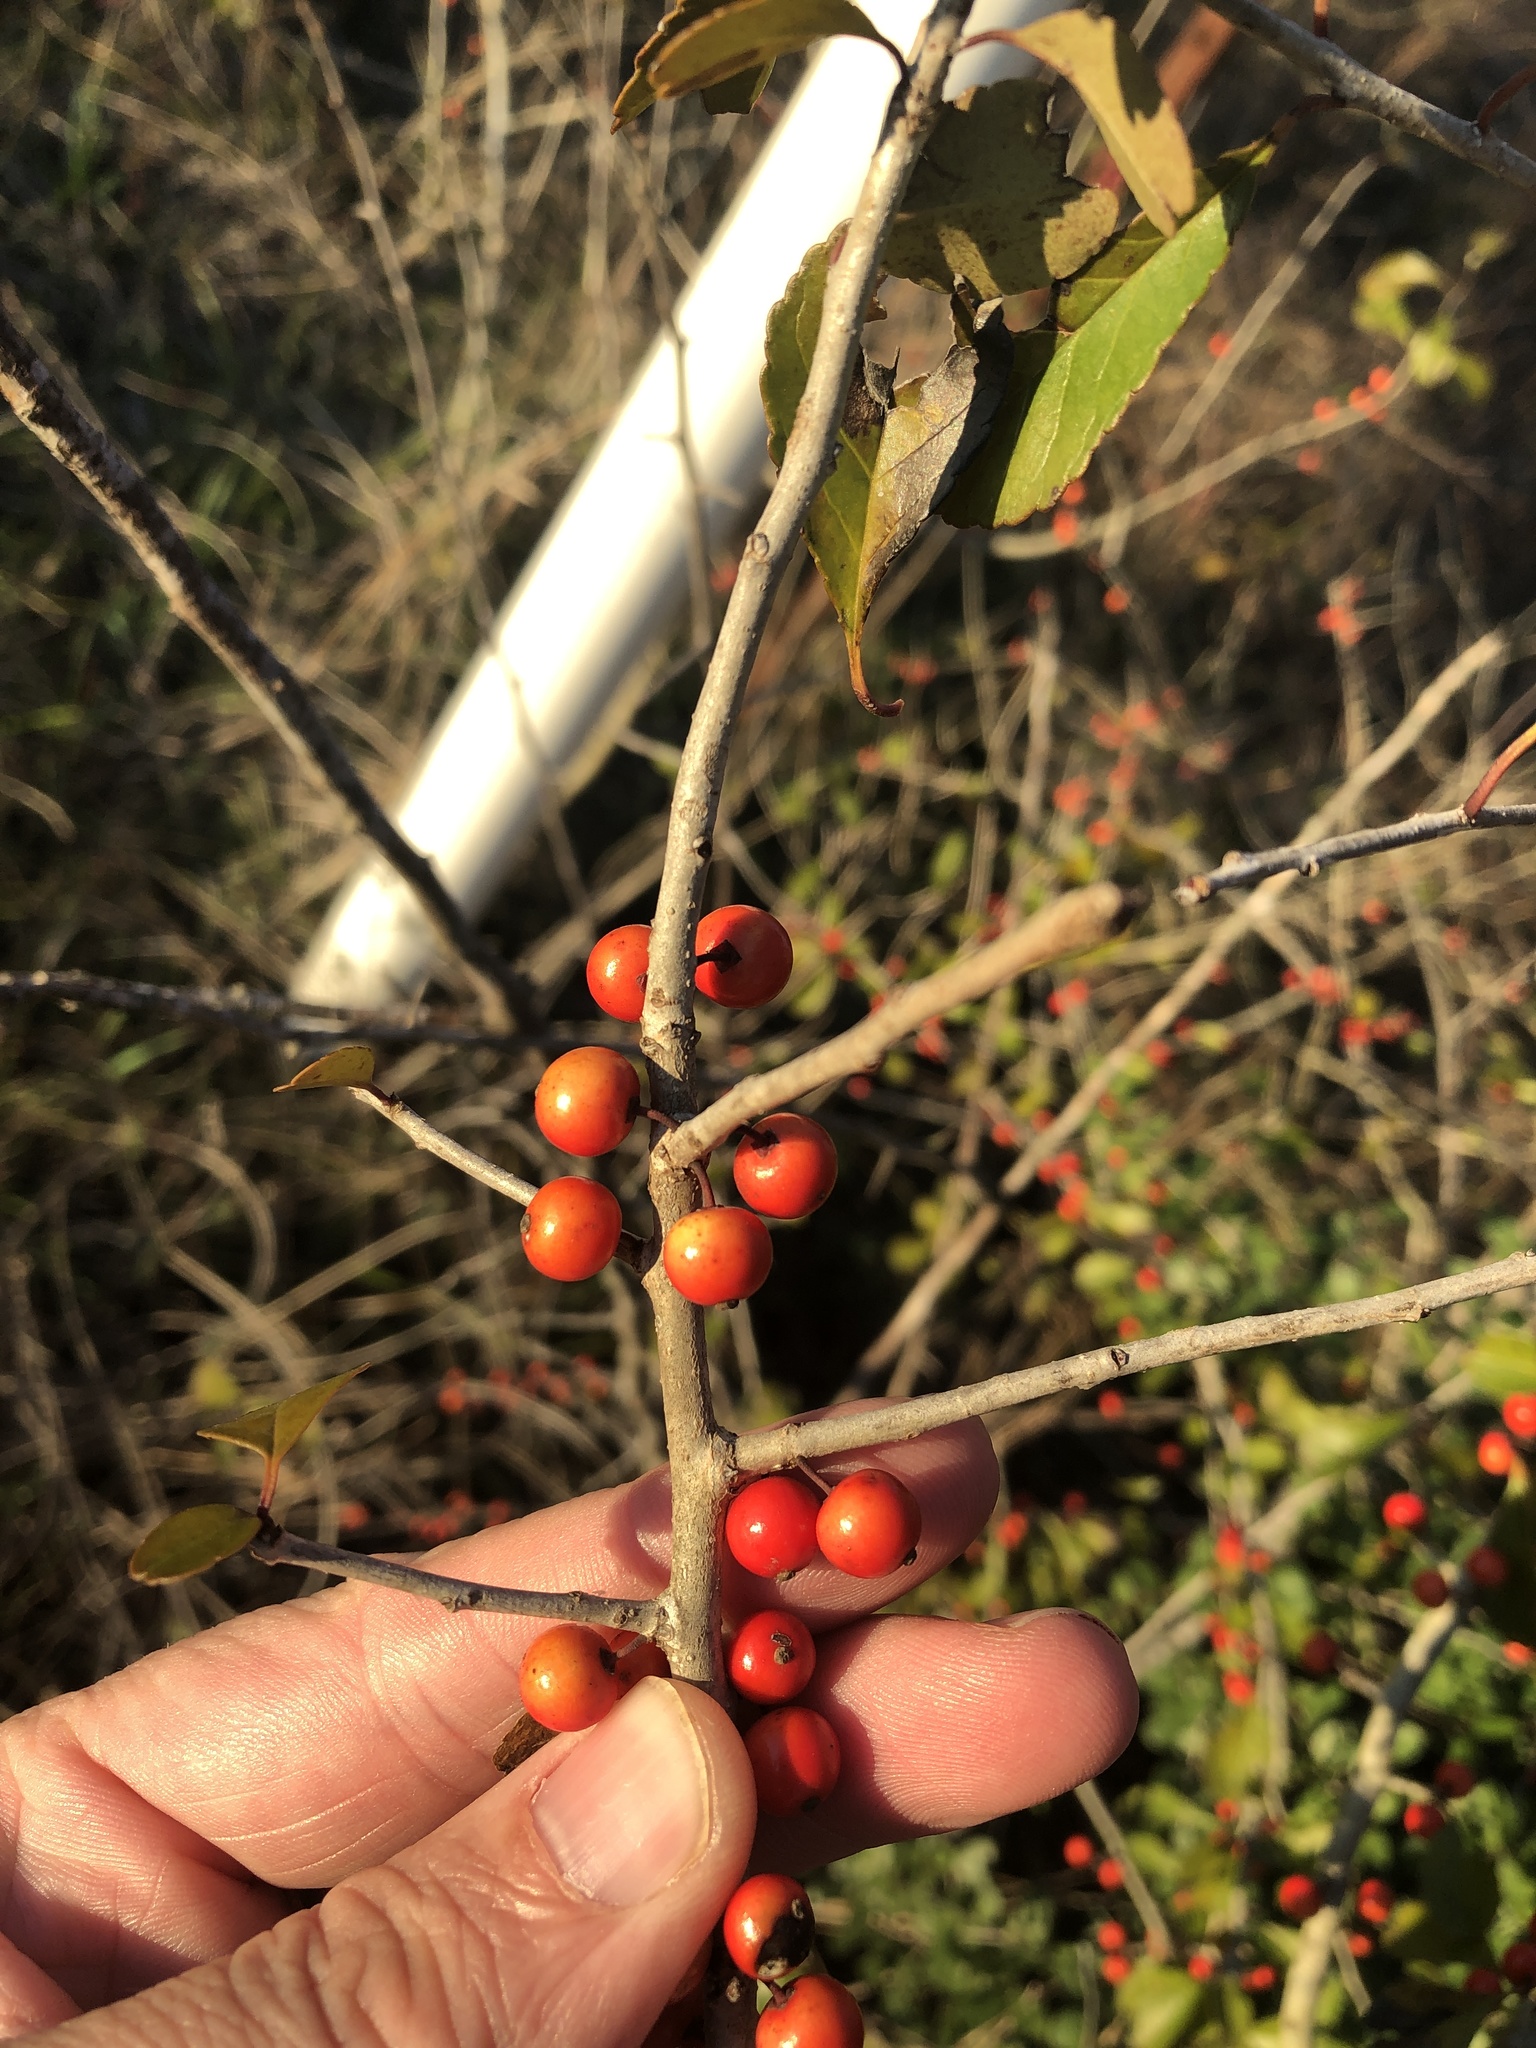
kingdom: Plantae
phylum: Tracheophyta
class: Magnoliopsida
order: Aquifoliales
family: Aquifoliaceae
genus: Ilex
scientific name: Ilex decidua
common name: Possum-haw
